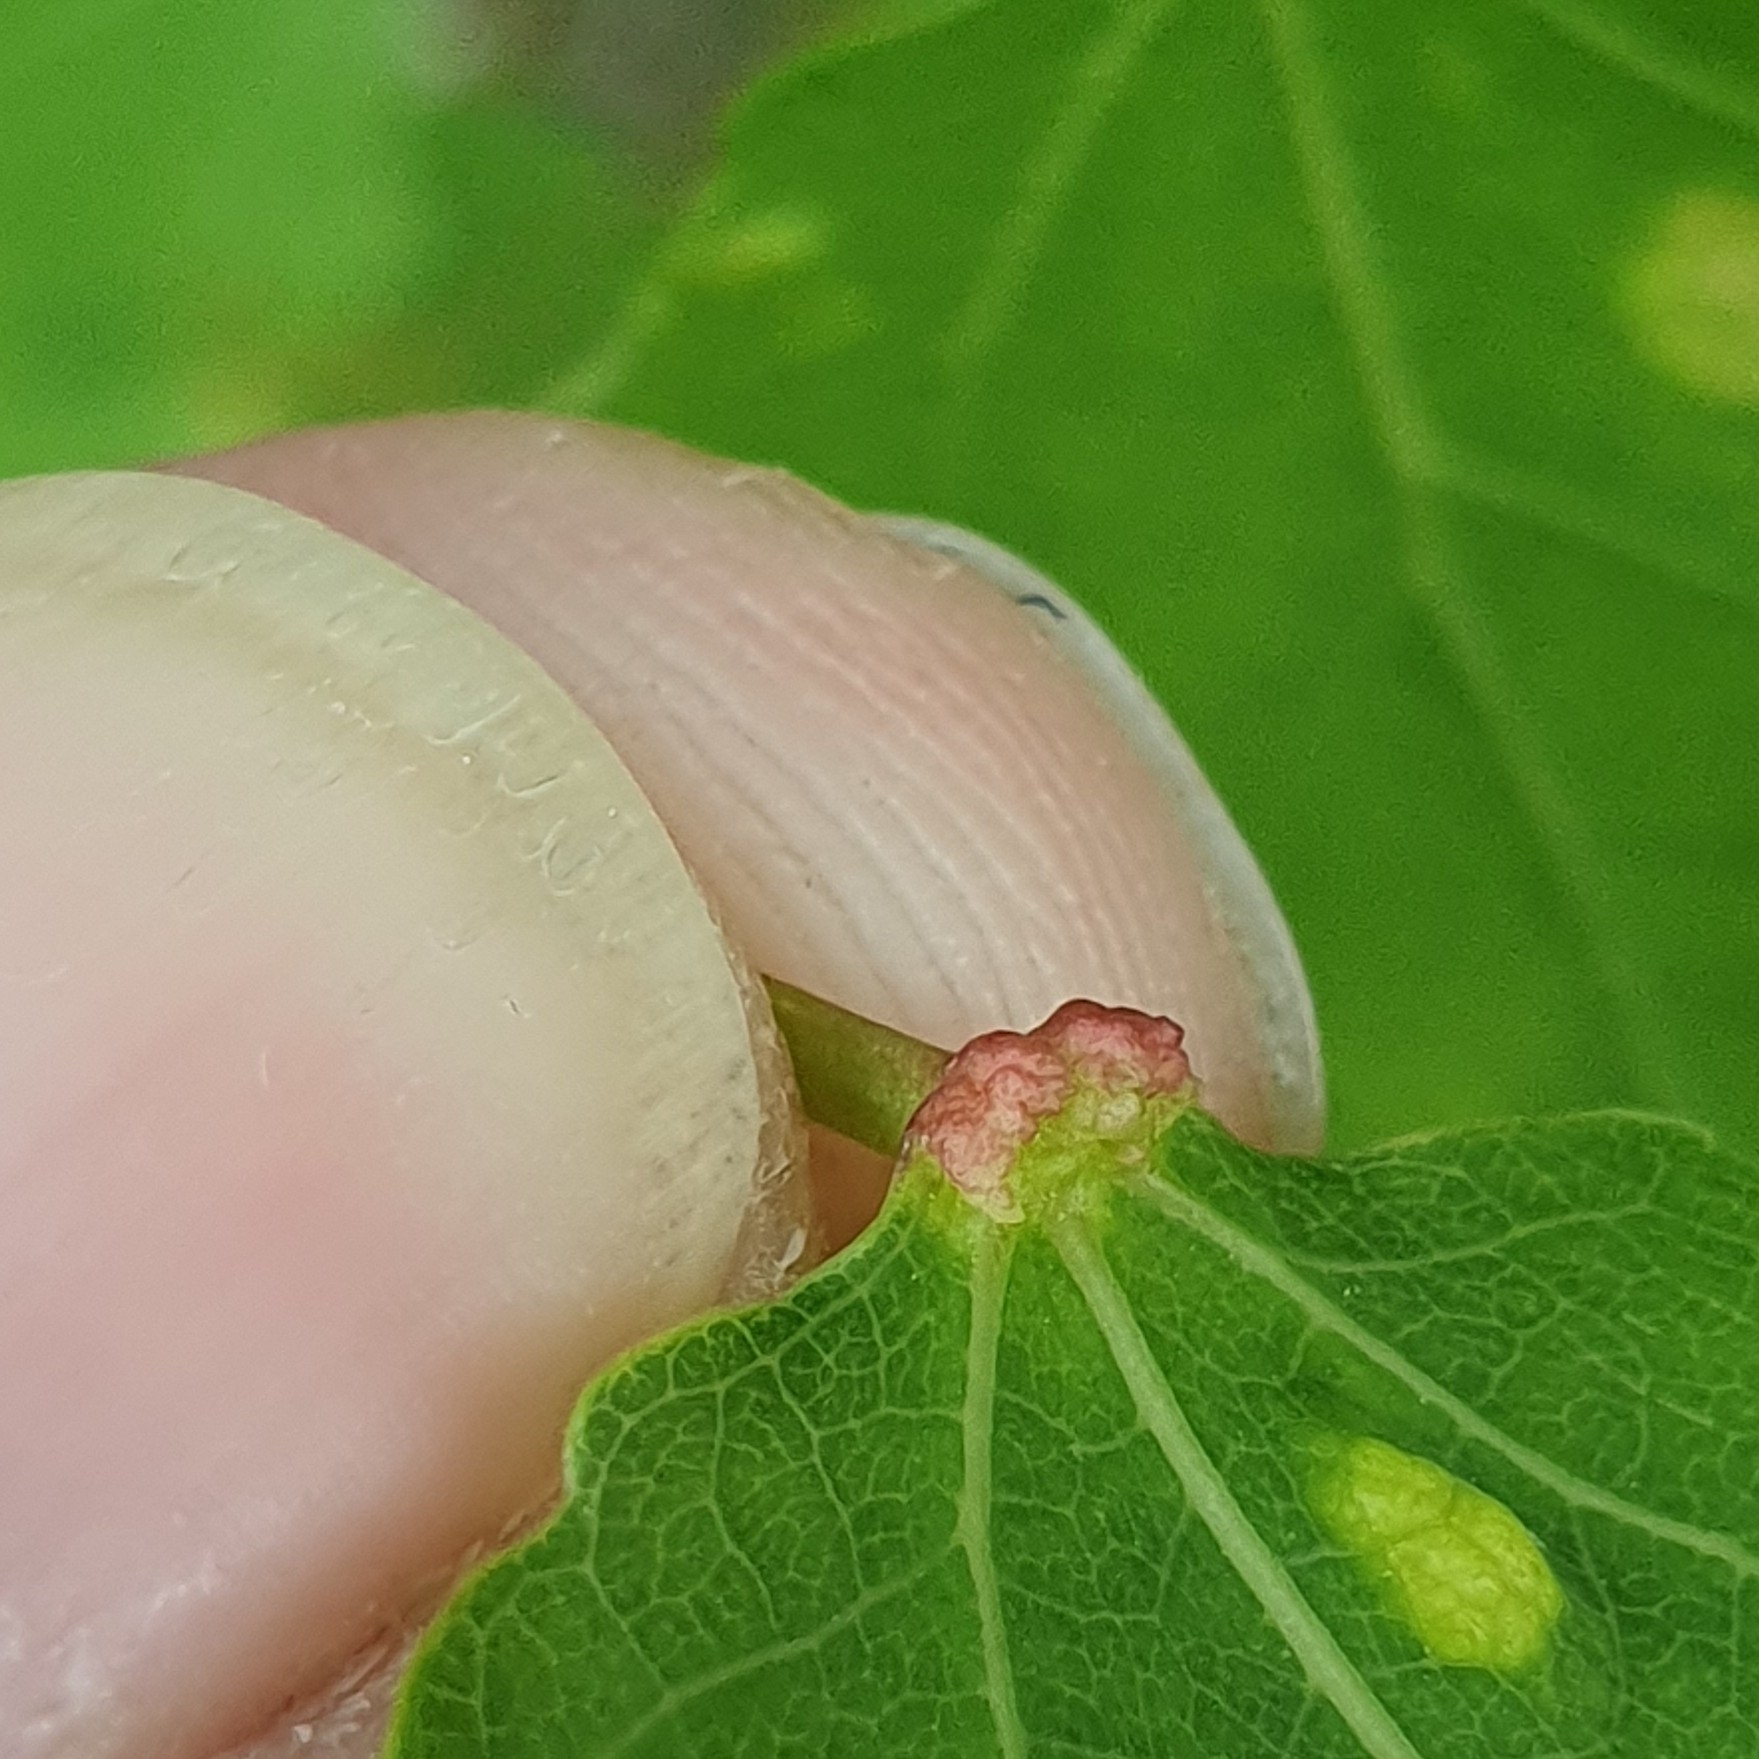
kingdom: Animalia
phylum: Arthropoda
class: Arachnida
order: Trombidiformes
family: Eriophyidae
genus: Eriophyes
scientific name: Eriophyes diversipunctatus
